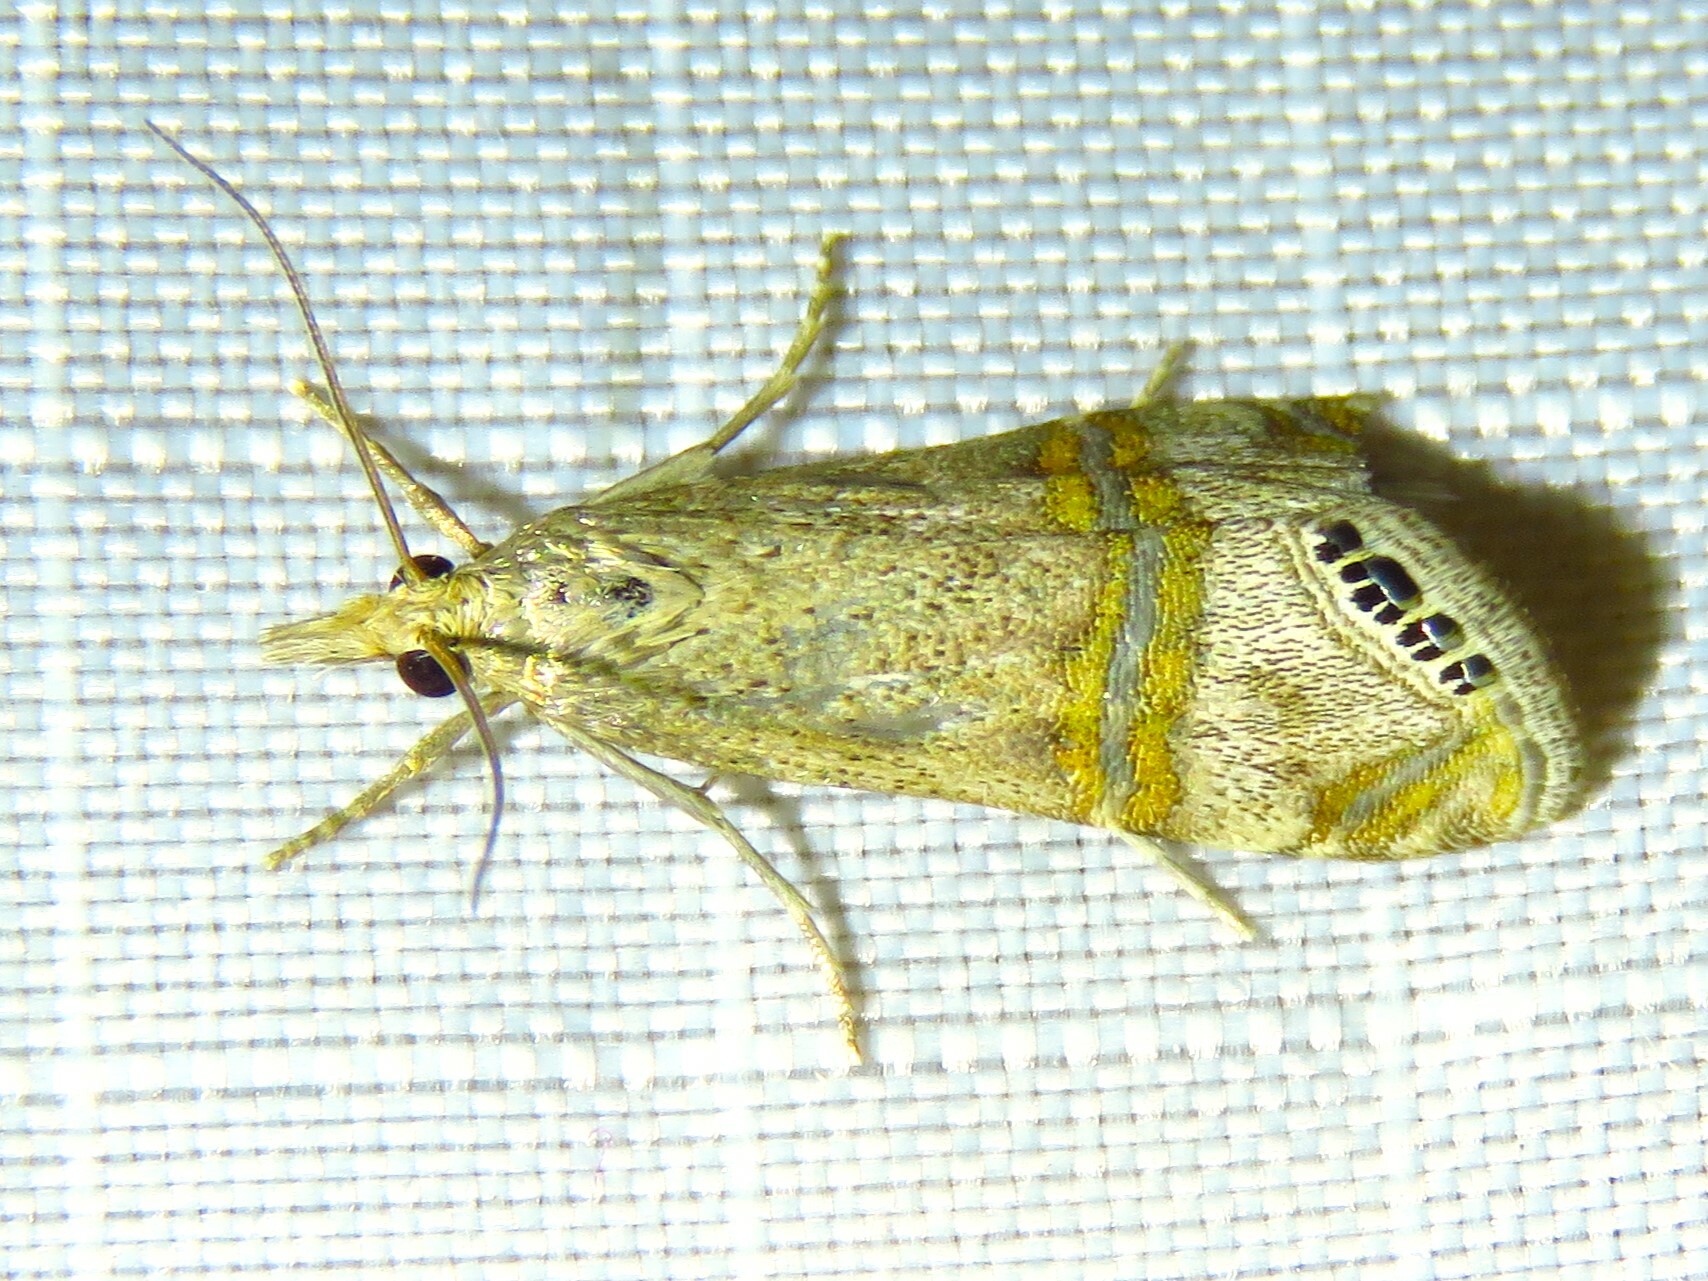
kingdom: Animalia
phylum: Arthropoda
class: Insecta
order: Lepidoptera
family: Crambidae
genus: Euchromius
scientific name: Euchromius ocellea
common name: Necklace veneer moth
